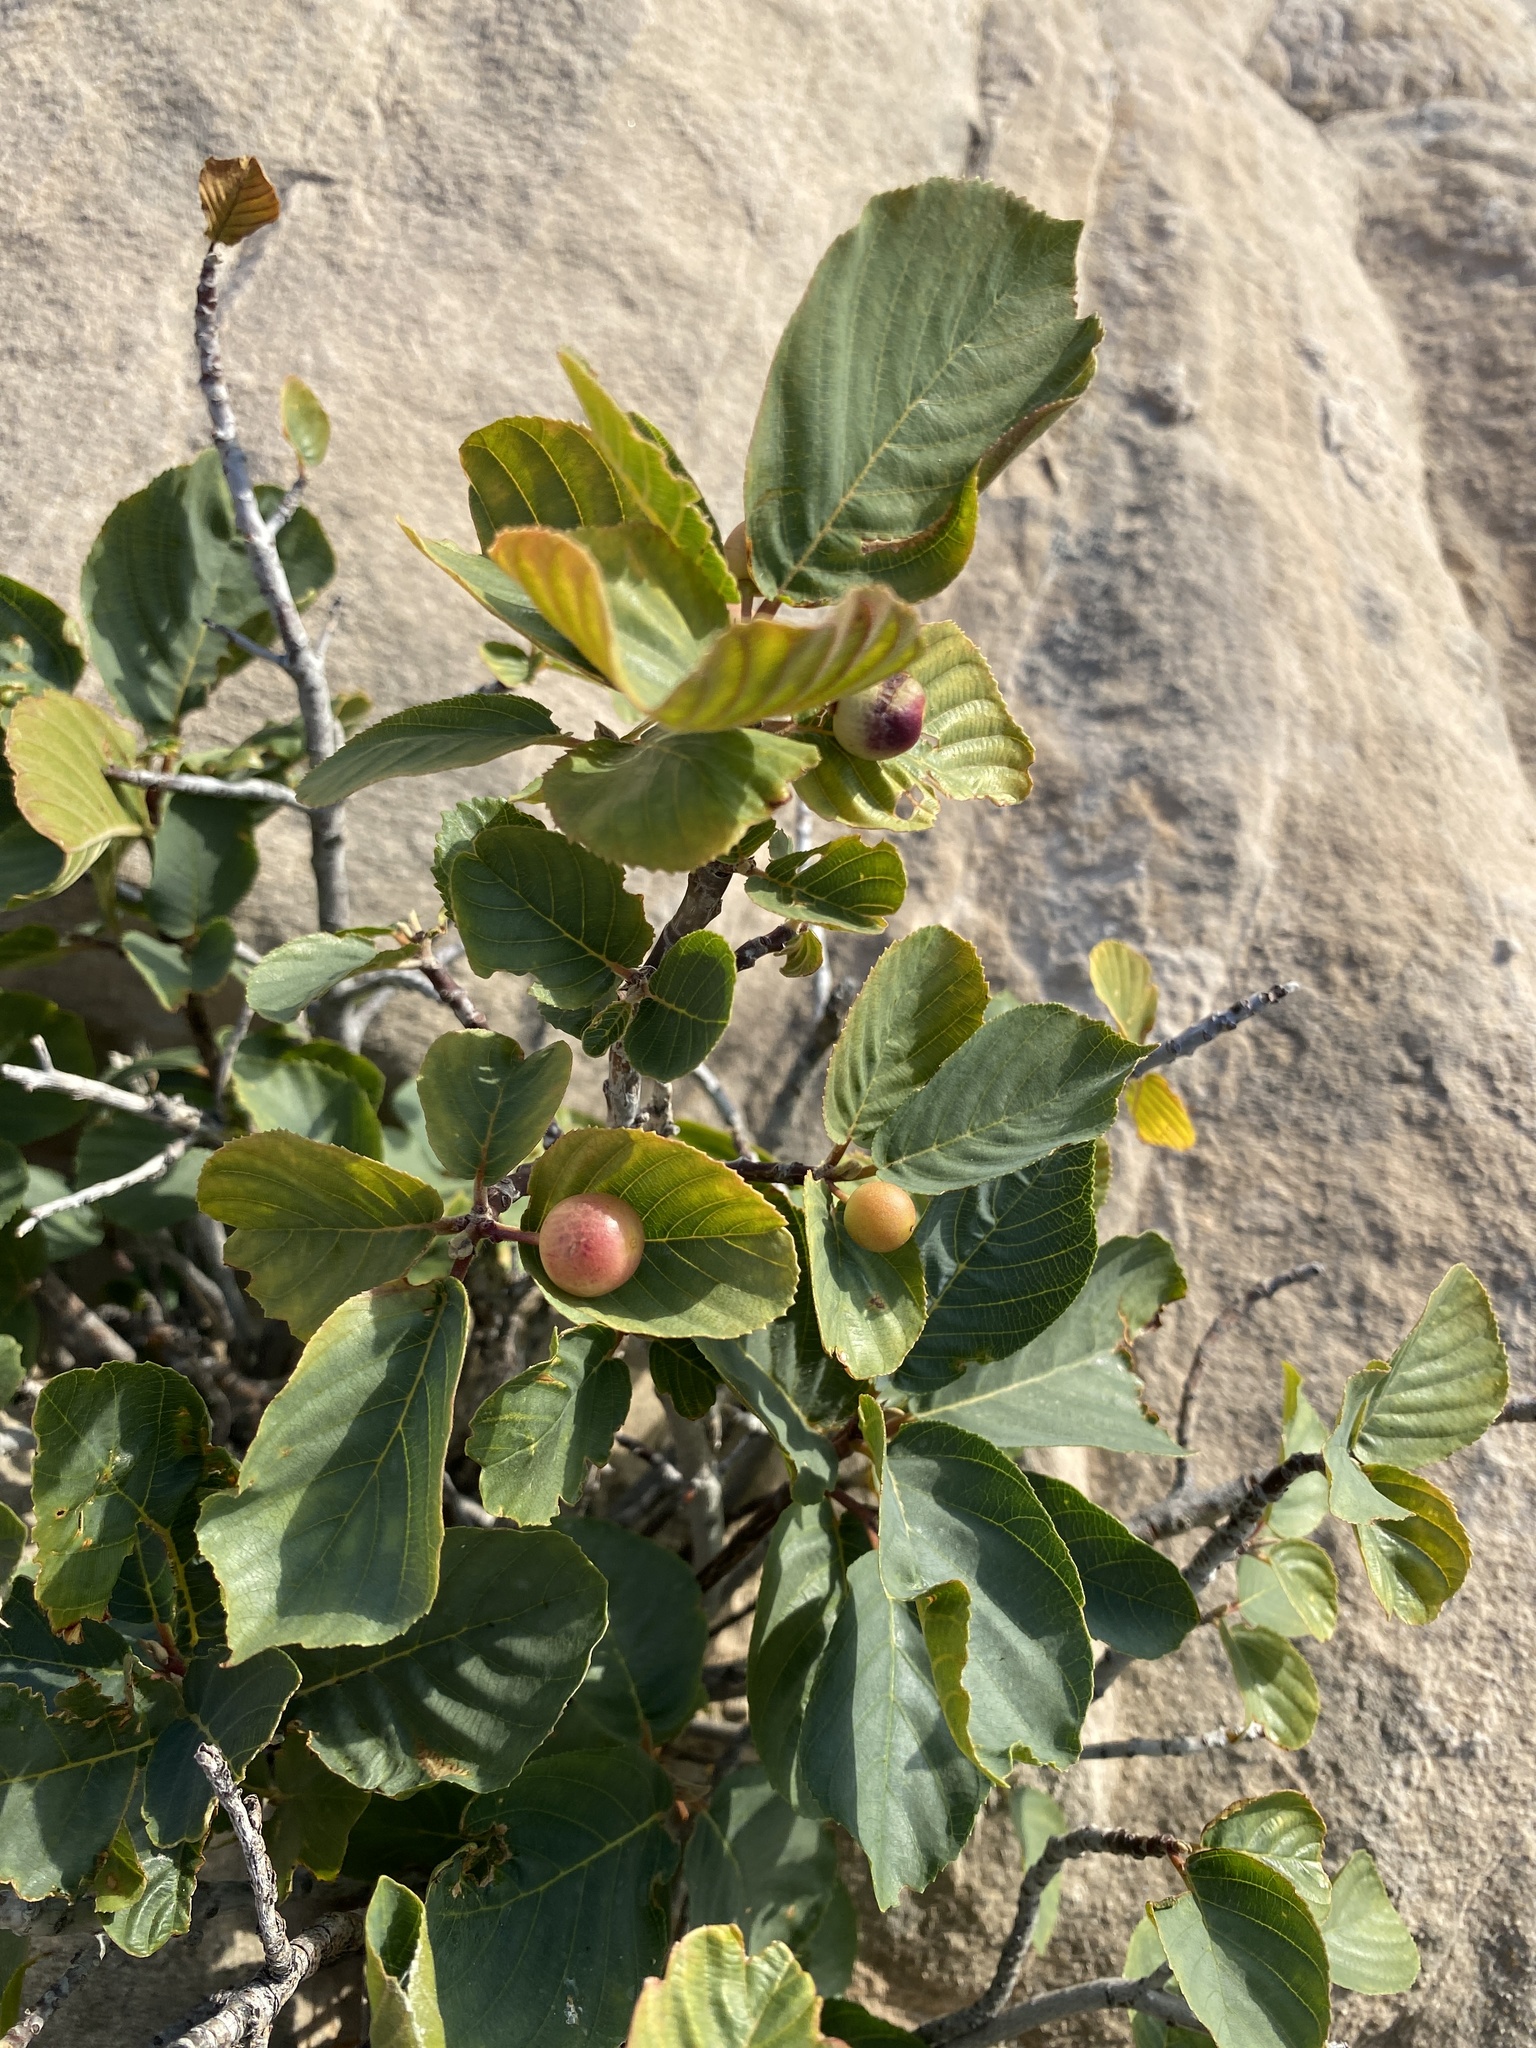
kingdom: Plantae
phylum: Tracheophyta
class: Magnoliopsida
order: Rosales
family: Rhamnaceae
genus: Frangula
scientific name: Frangula betulifolia
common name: Birch-leaf buckthorn
